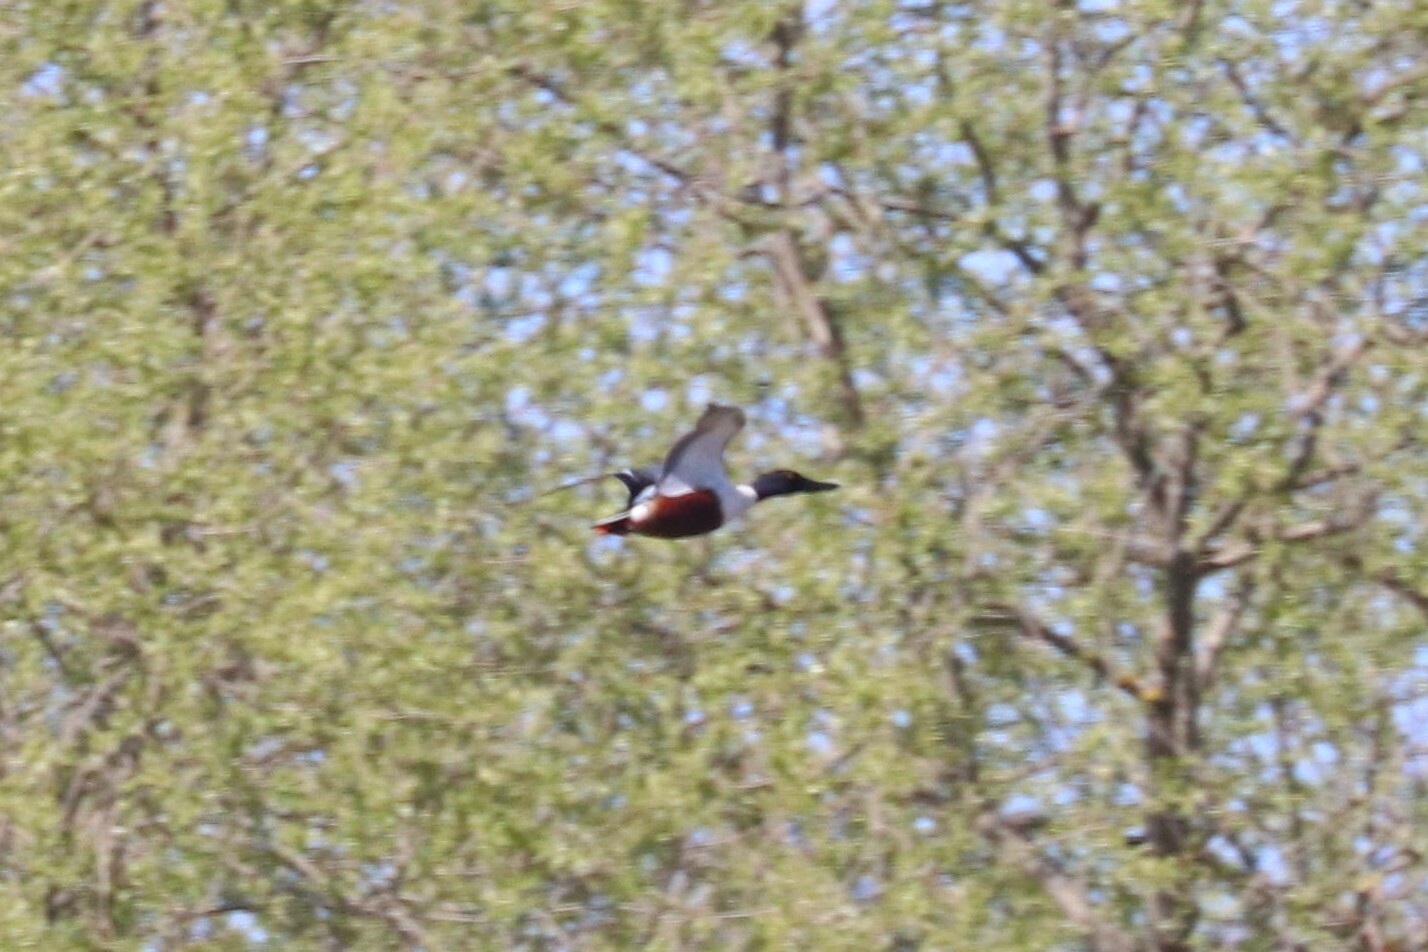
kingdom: Animalia
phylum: Chordata
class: Aves
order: Anseriformes
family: Anatidae
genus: Spatula
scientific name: Spatula clypeata
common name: Northern shoveler
